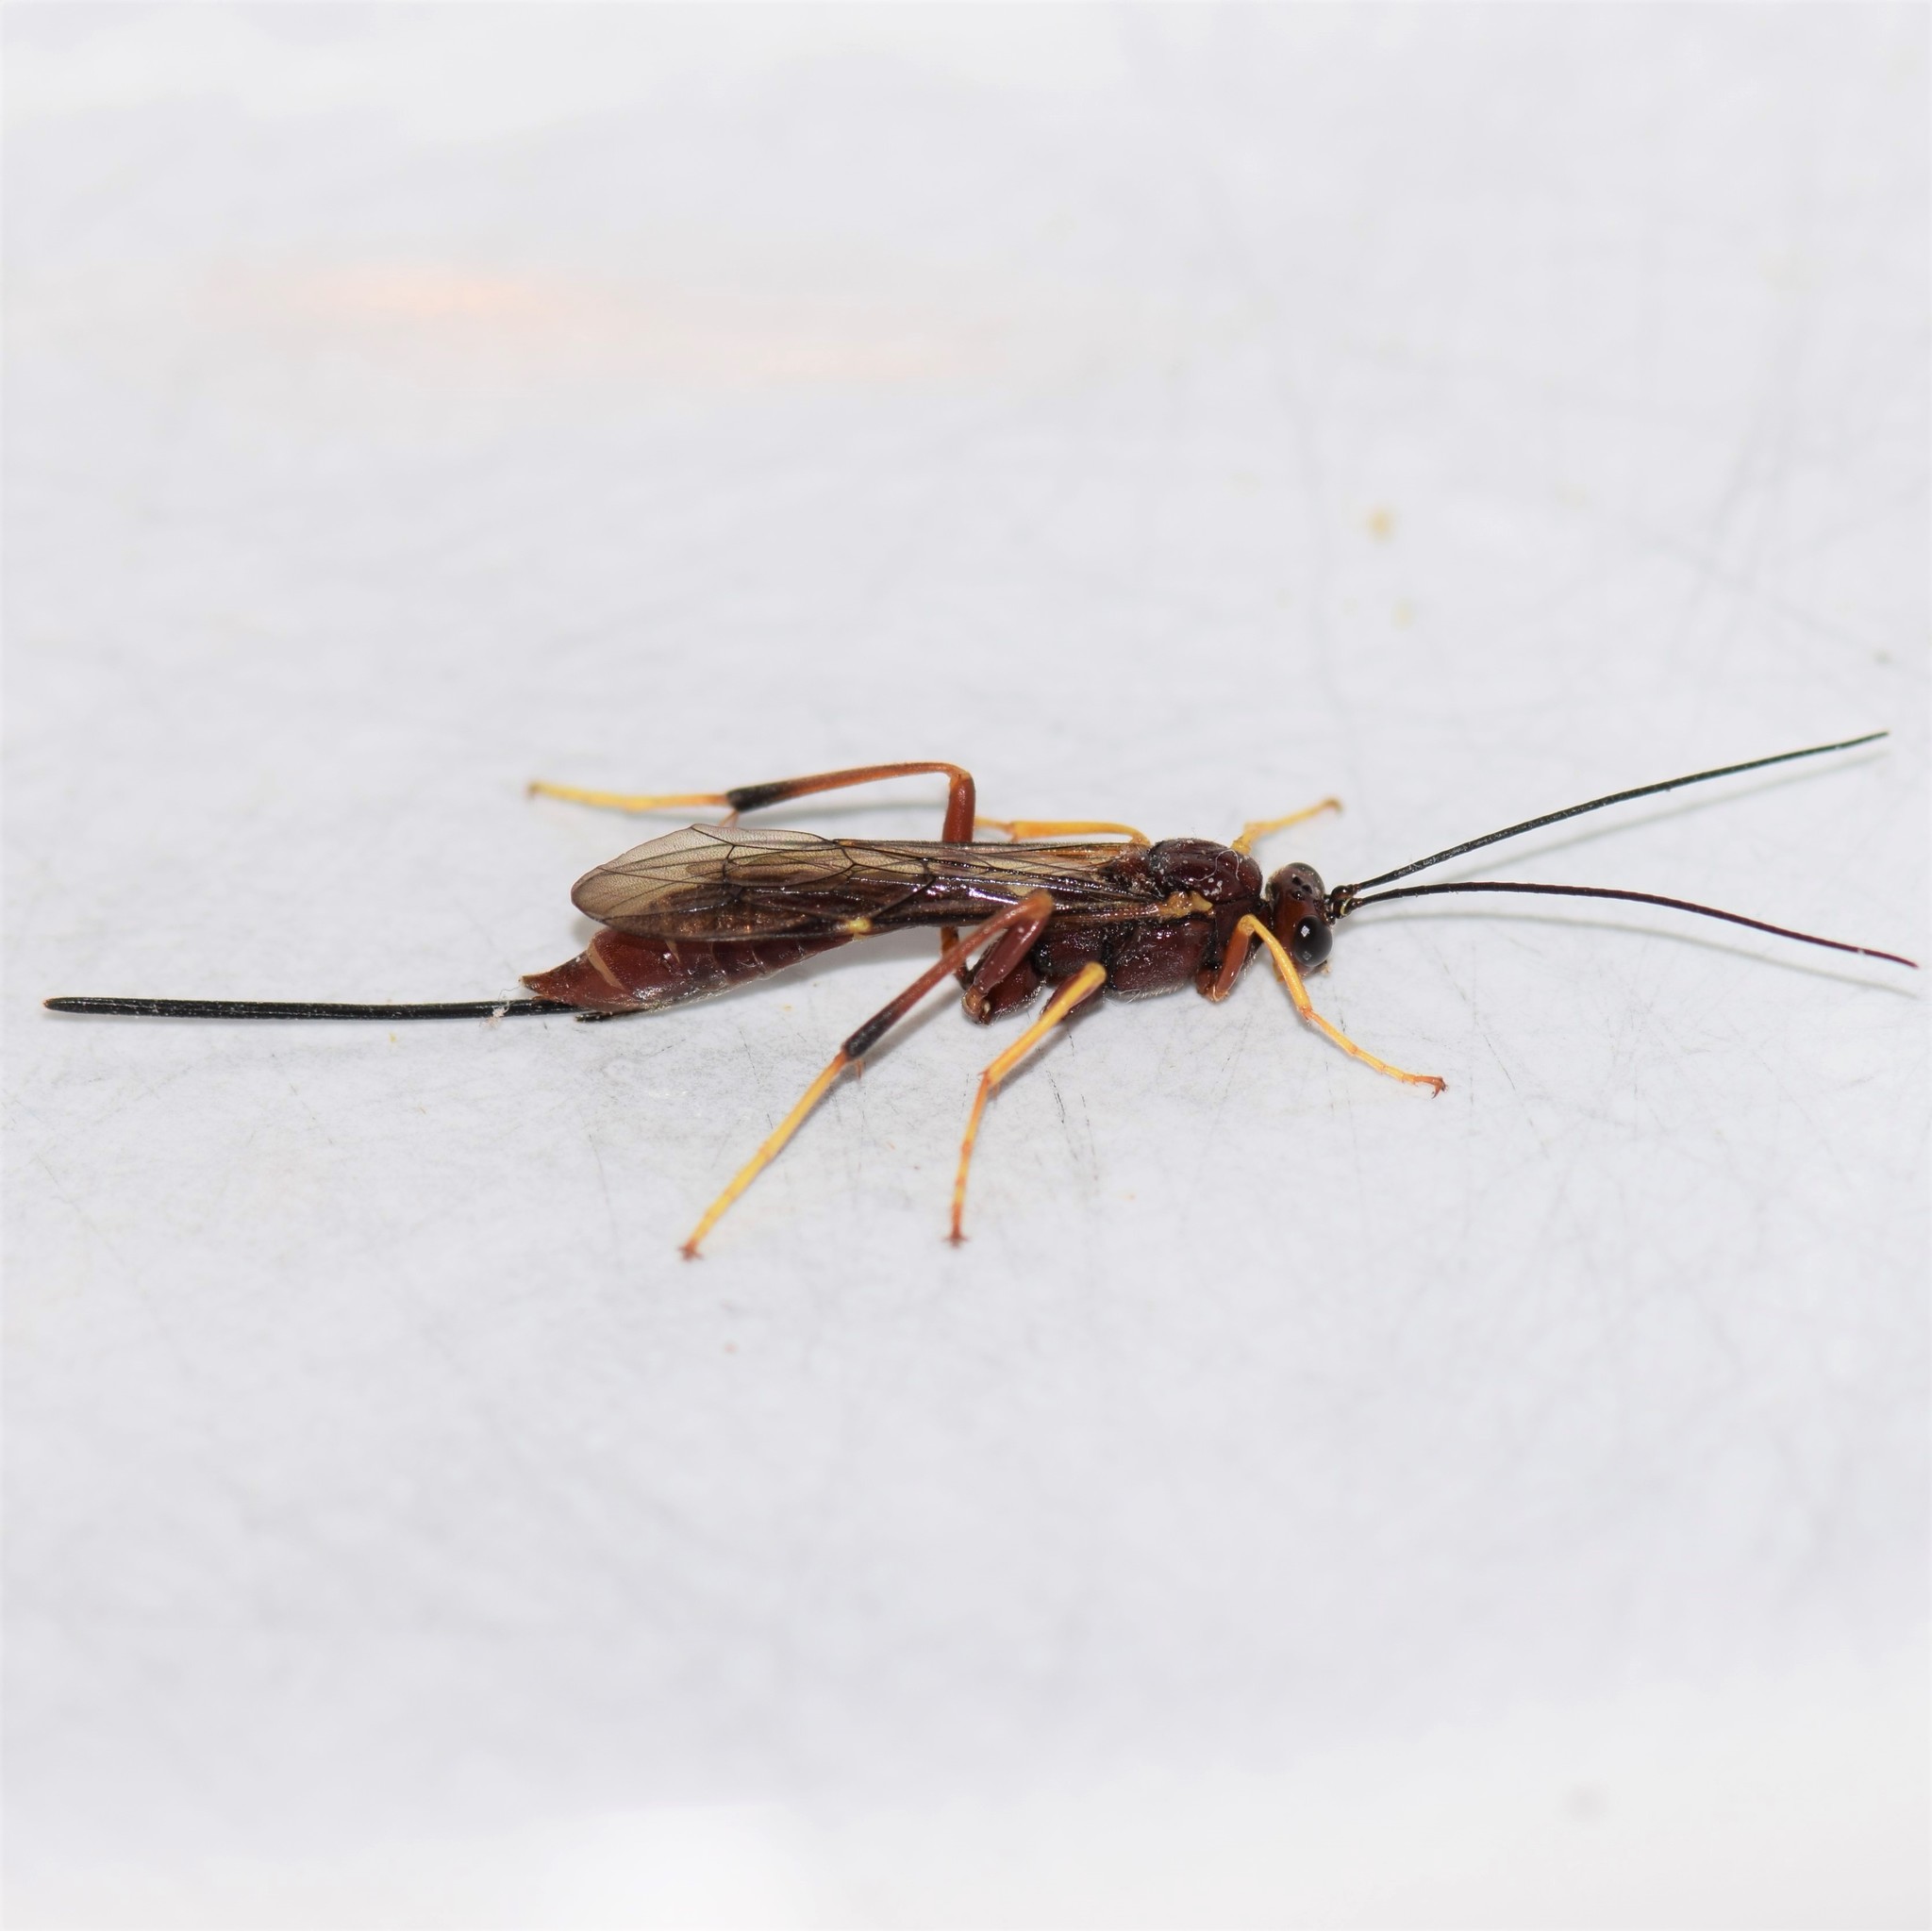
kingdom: Animalia
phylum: Arthropoda
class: Insecta
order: Hymenoptera
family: Ichneumonidae
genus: Coleocentrus
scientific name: Coleocentrus rufus
